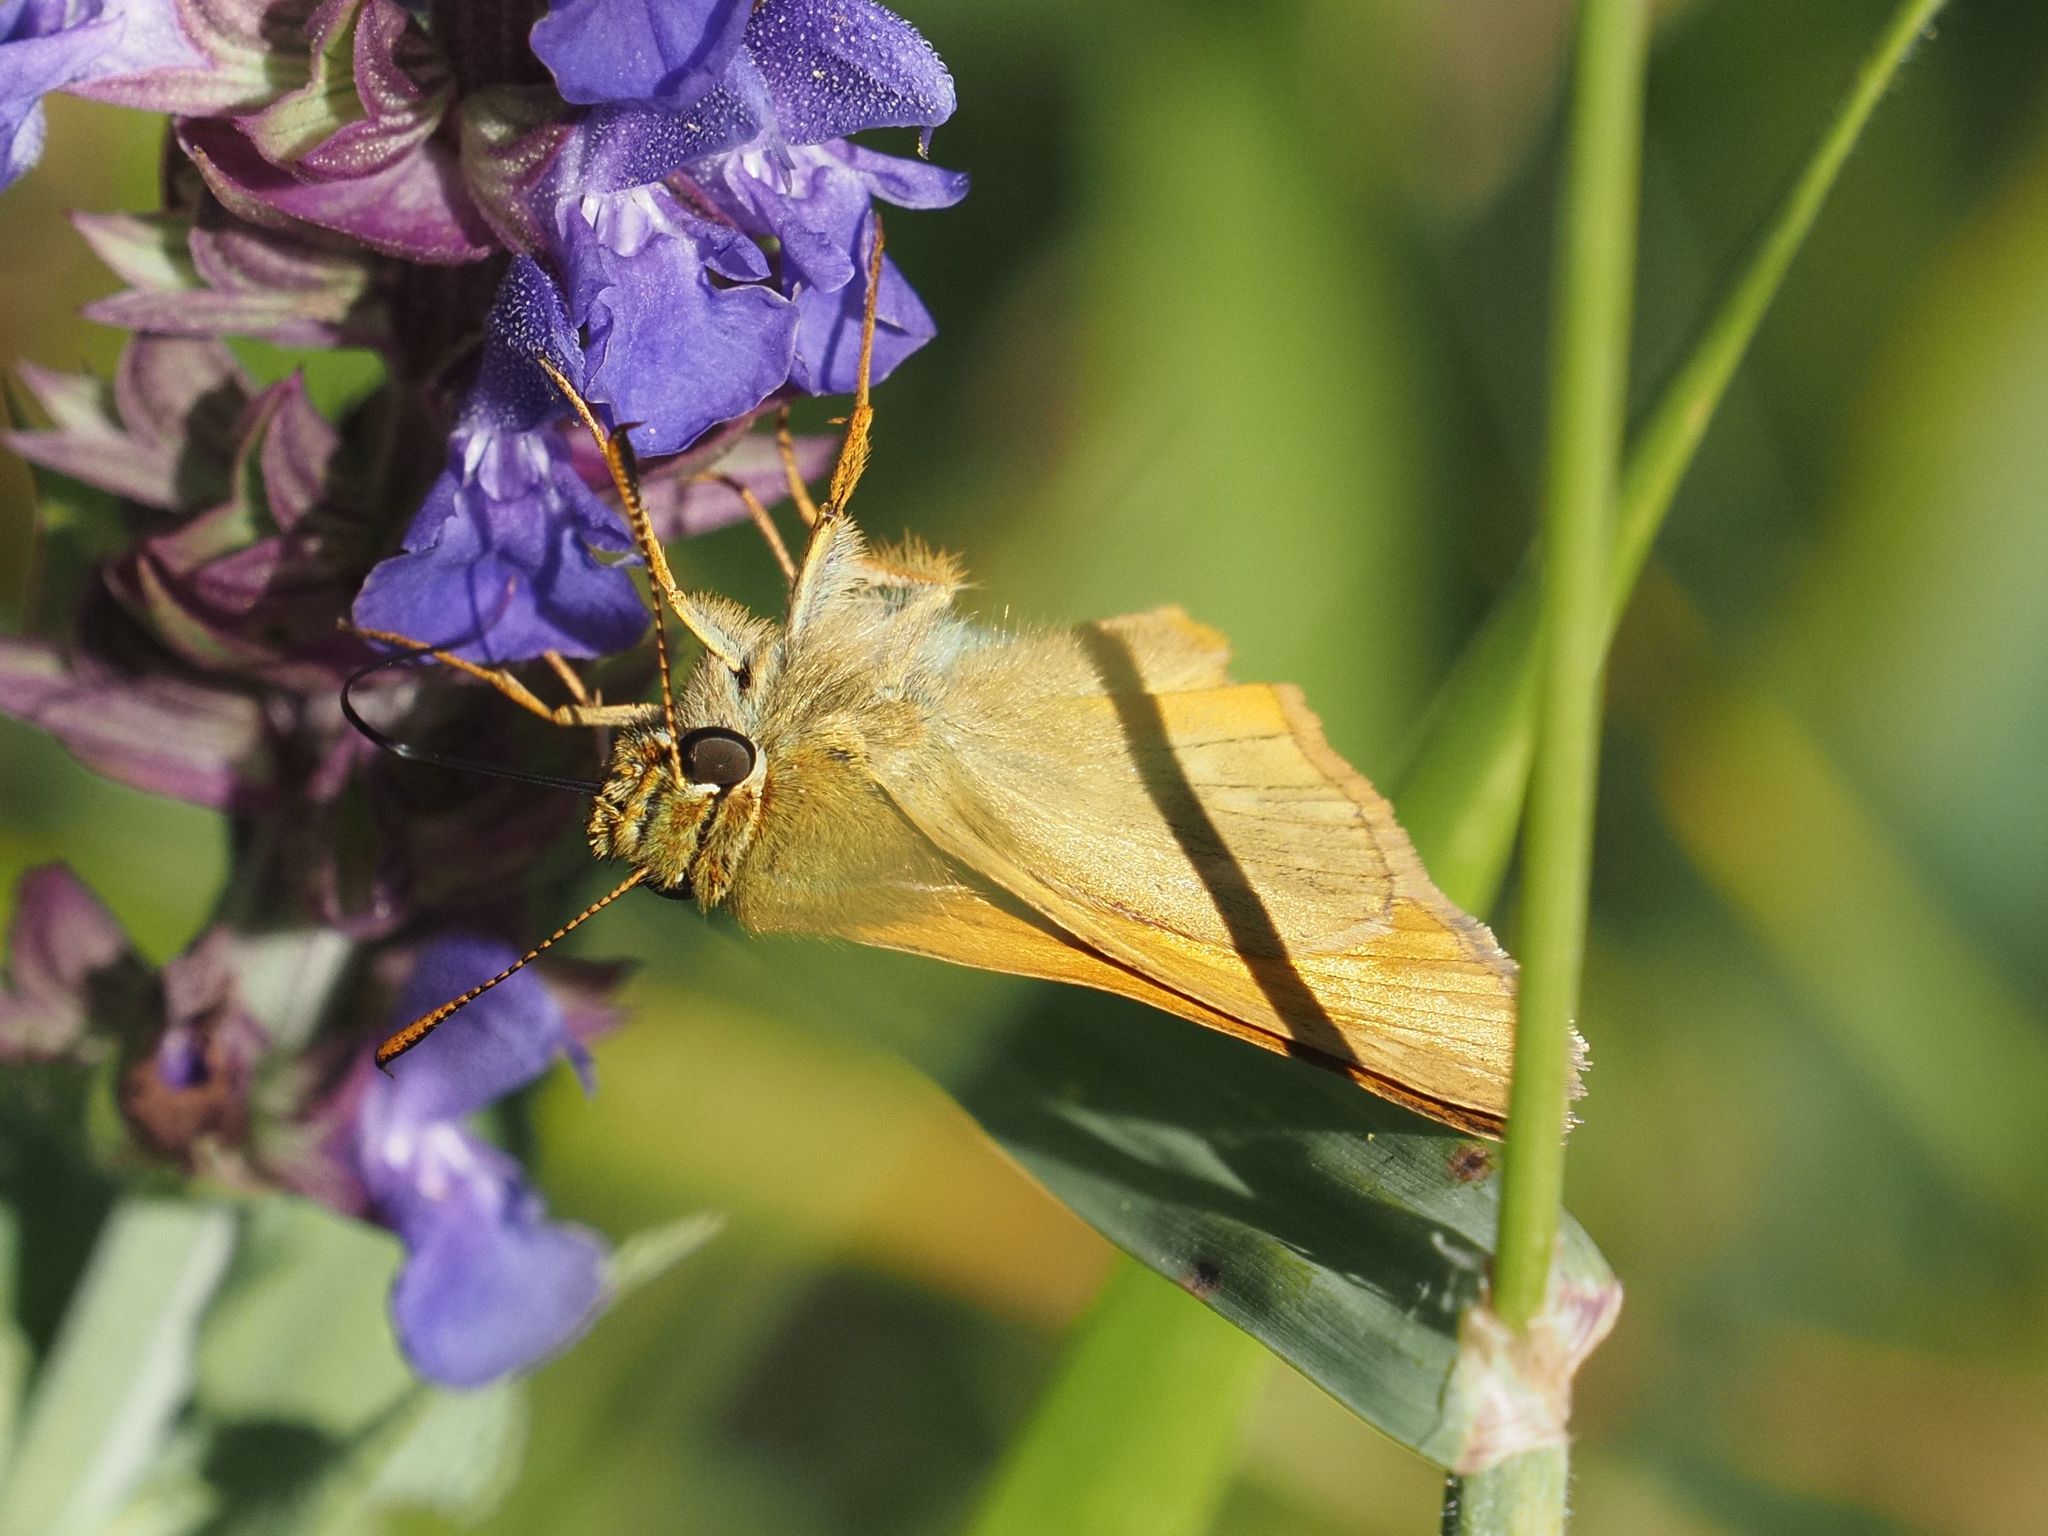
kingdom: Animalia
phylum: Arthropoda
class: Insecta
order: Lepidoptera
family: Hesperiidae
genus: Ochlodes
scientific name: Ochlodes venata
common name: Large skipper
